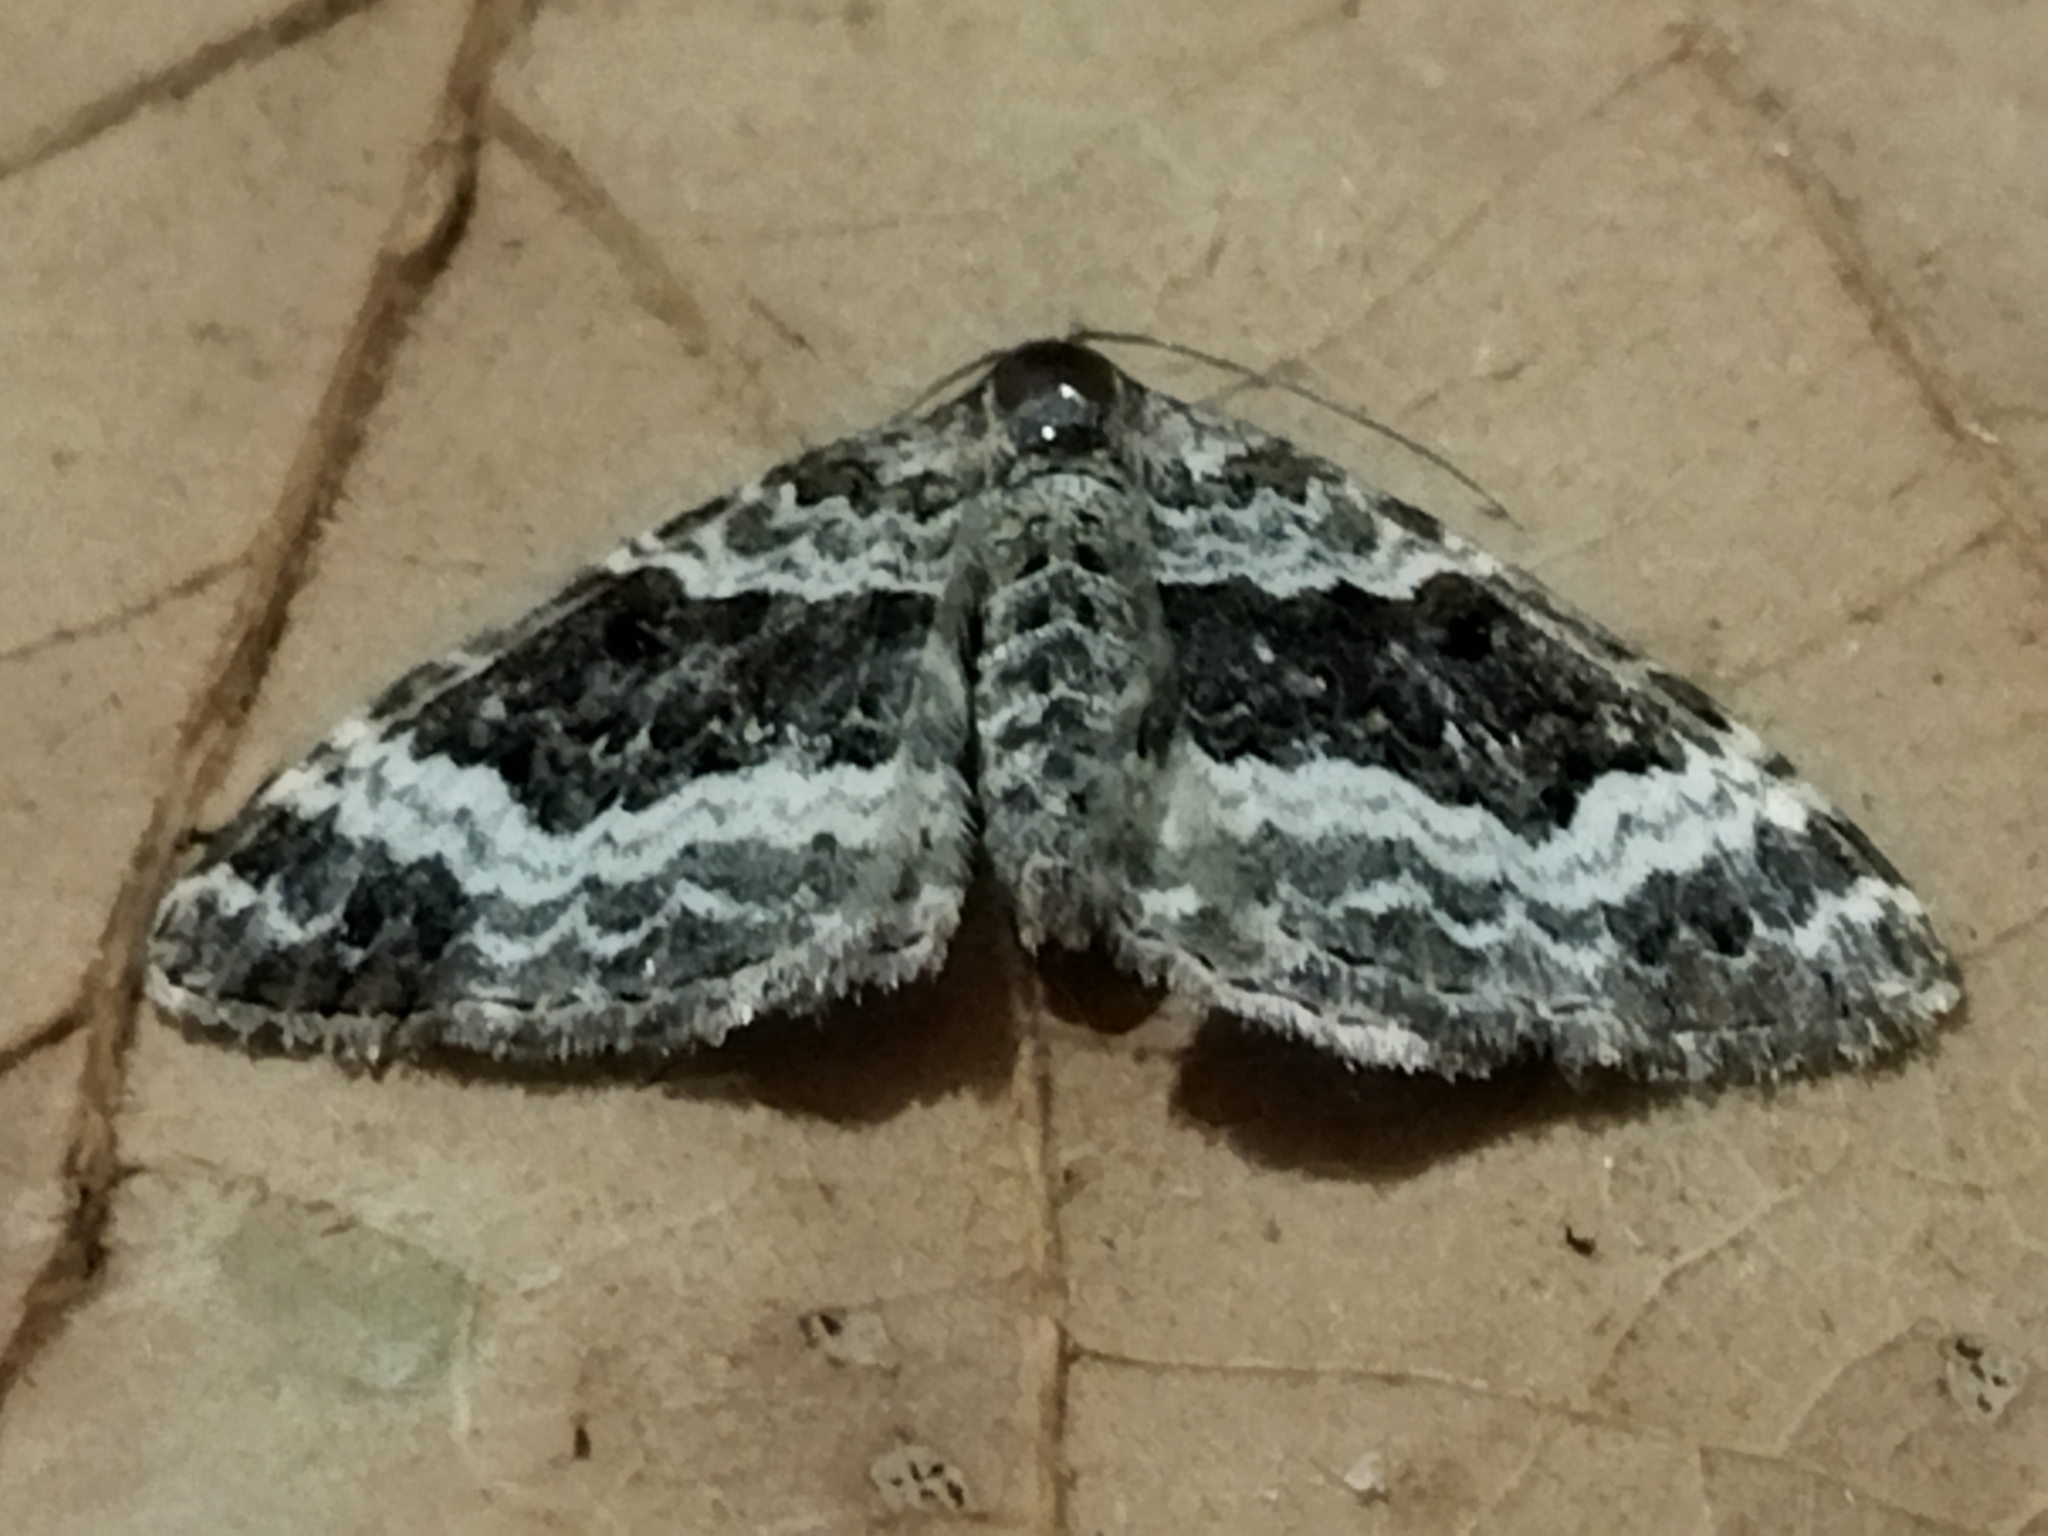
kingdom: Animalia
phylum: Arthropoda
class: Insecta
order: Lepidoptera
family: Geometridae
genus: Epirrhoe
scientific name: Epirrhoe alternata
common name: Common carpet
